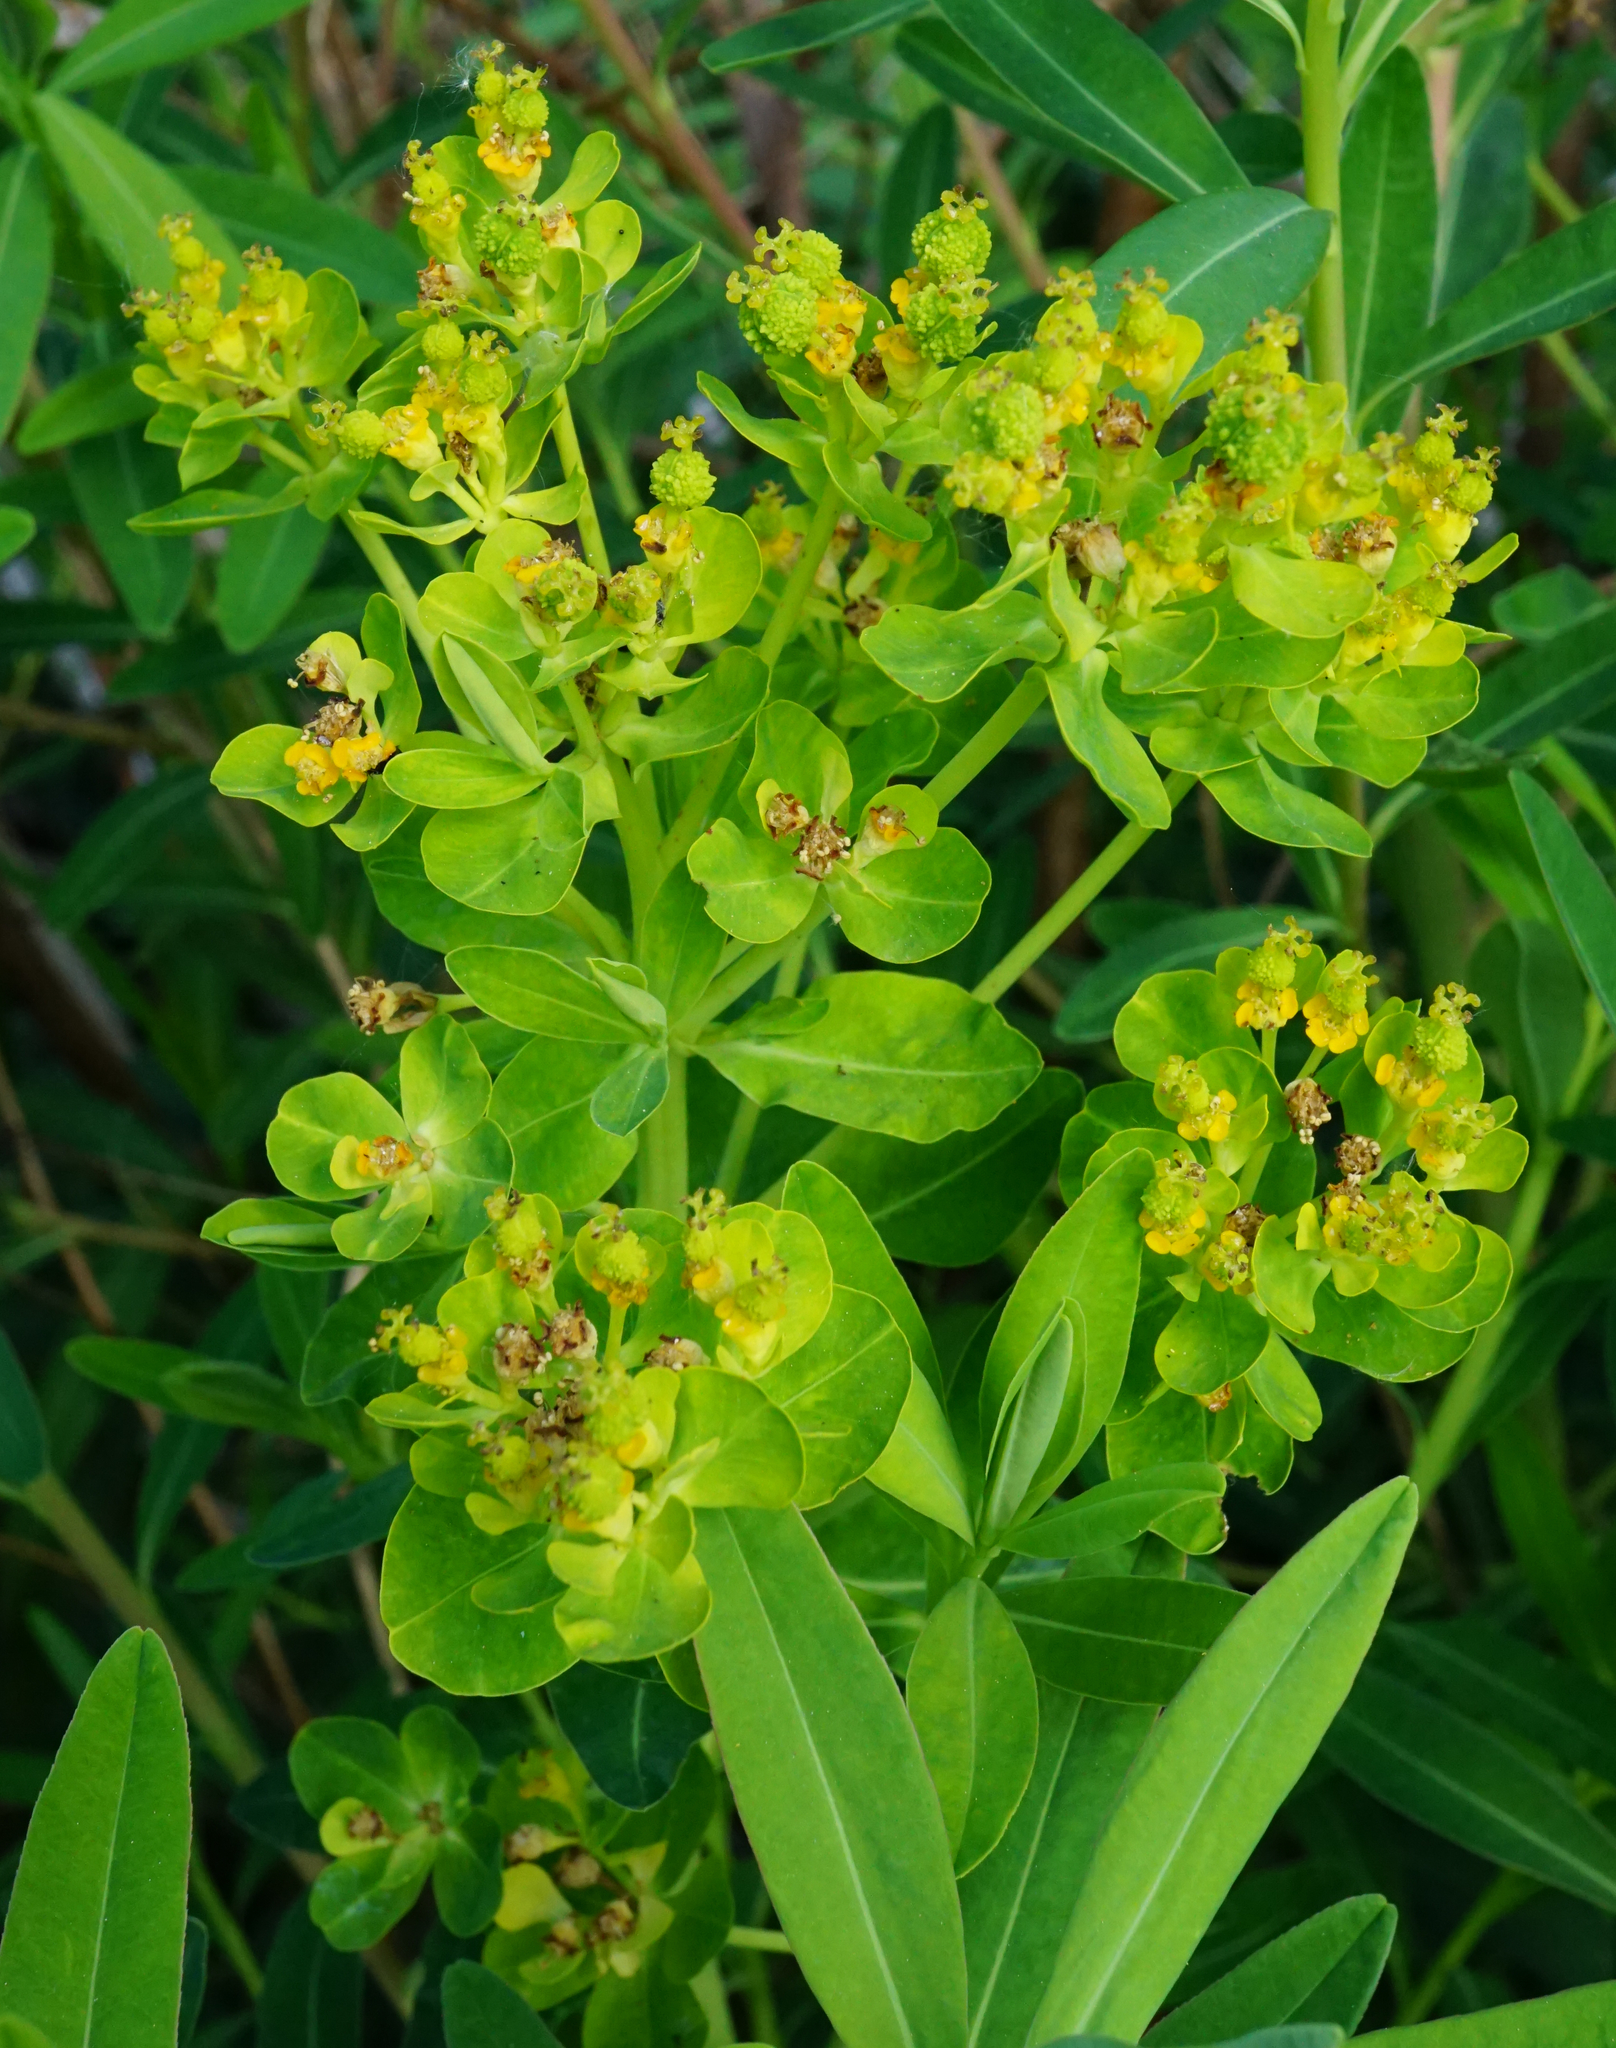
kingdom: Plantae
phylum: Tracheophyta
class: Magnoliopsida
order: Malpighiales
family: Euphorbiaceae
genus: Euphorbia
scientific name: Euphorbia palustris
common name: Marsh spurge
